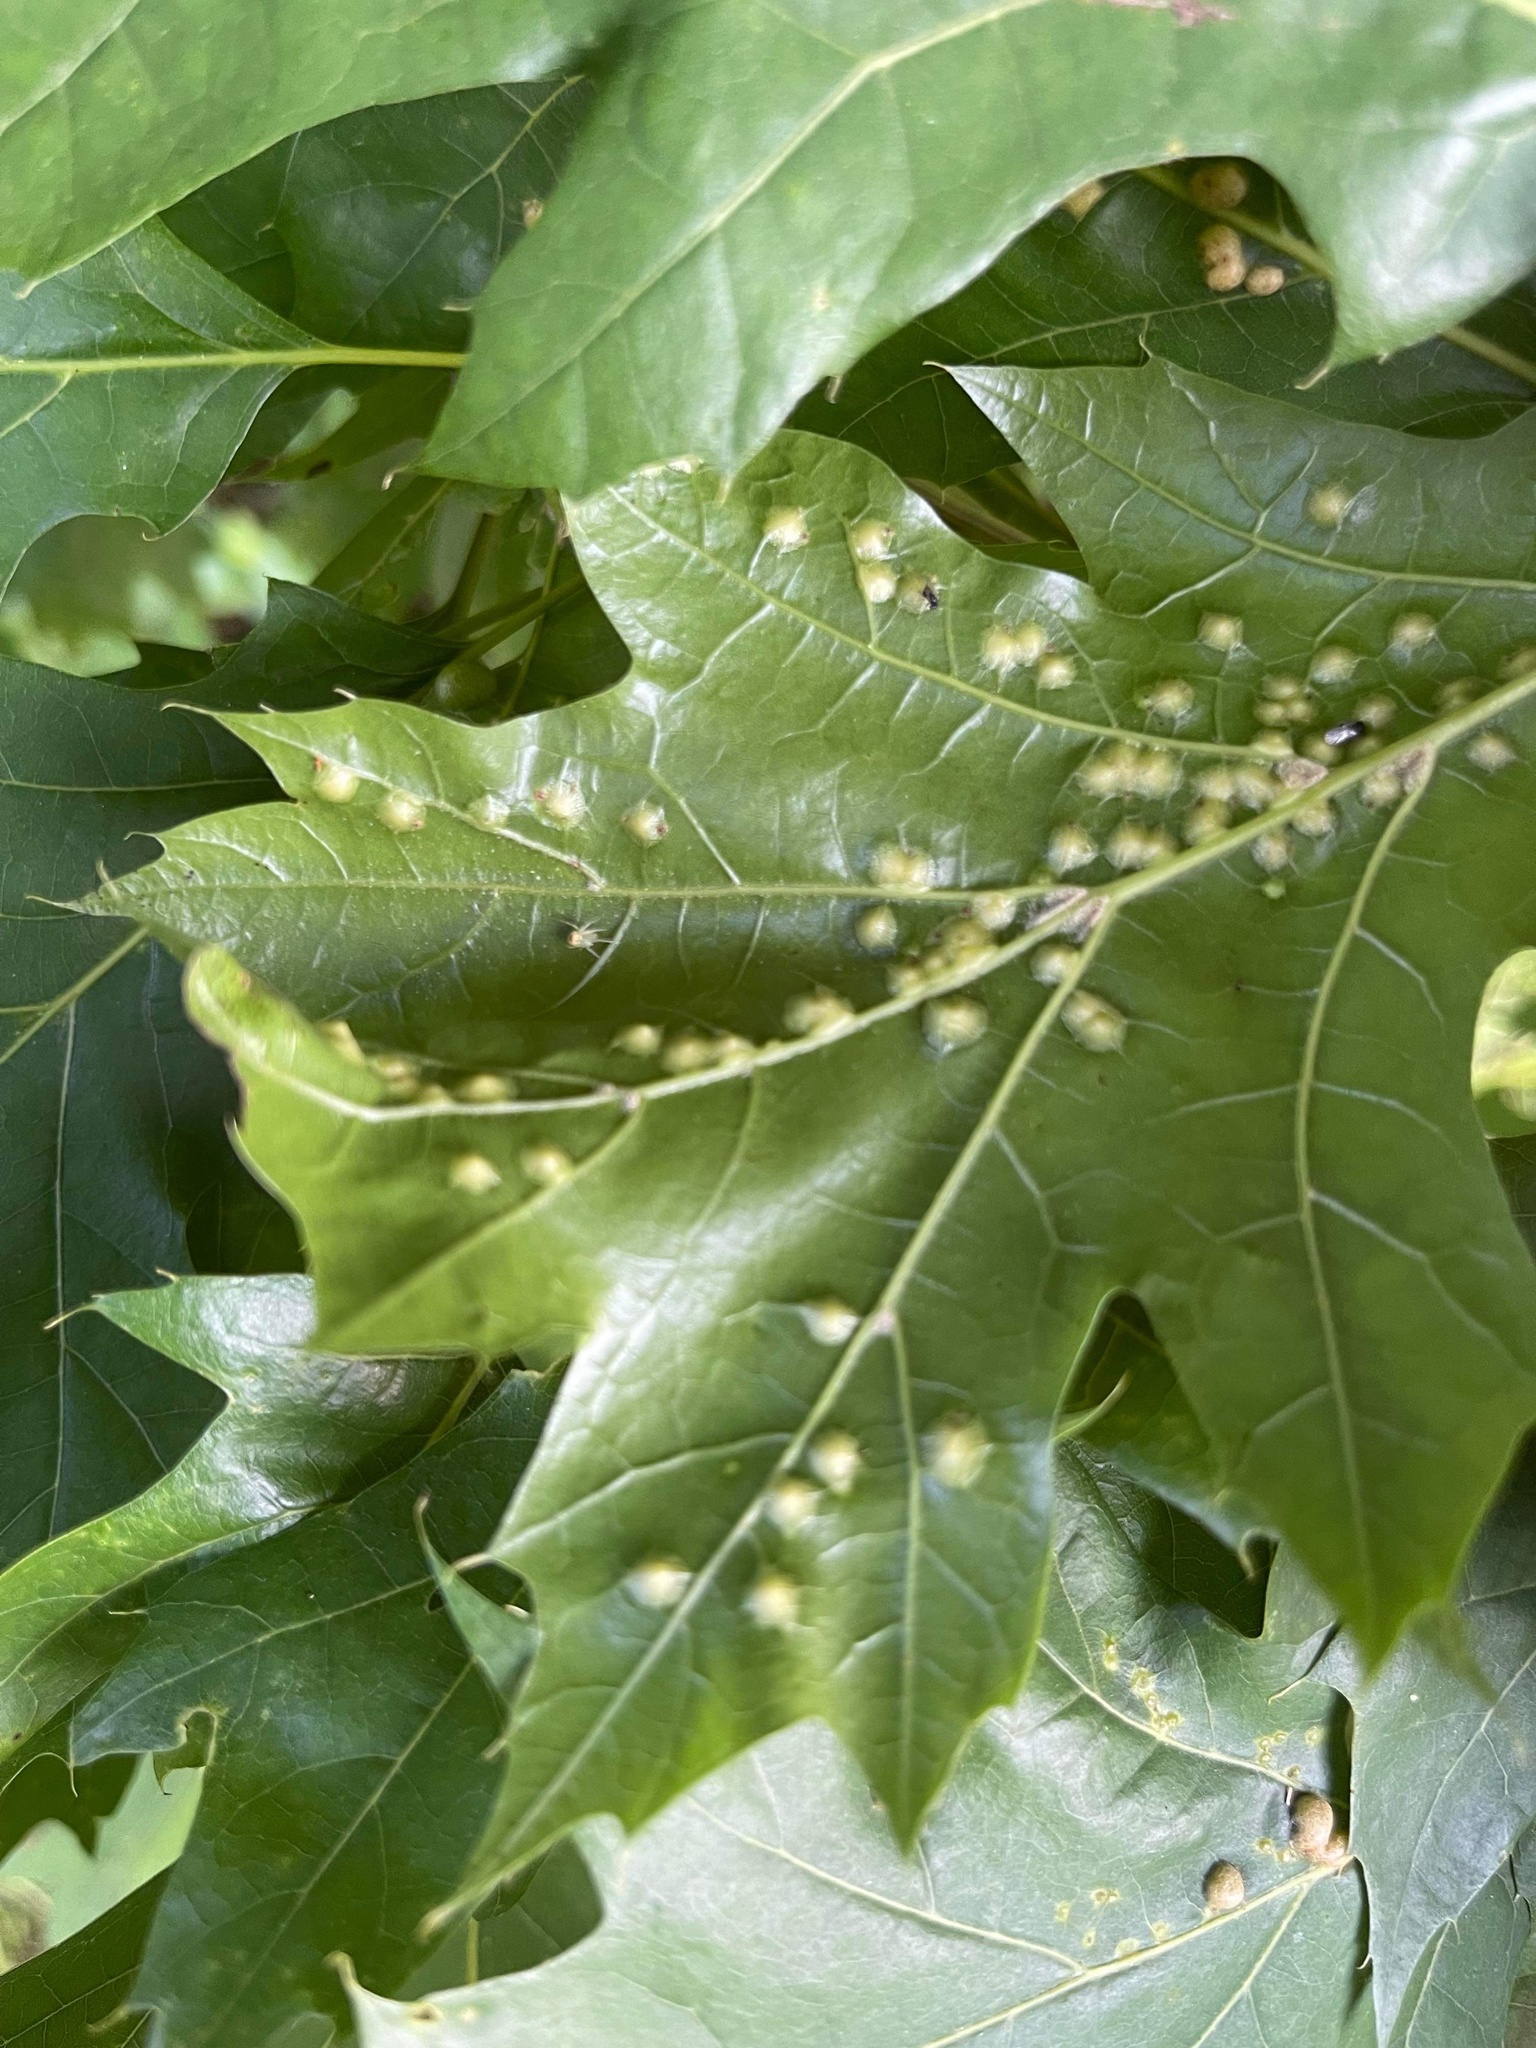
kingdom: Animalia
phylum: Arthropoda
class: Insecta
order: Diptera
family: Cecidomyiidae
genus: Polystepha
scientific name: Polystepha pilulae
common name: Oak leaf gall midge
